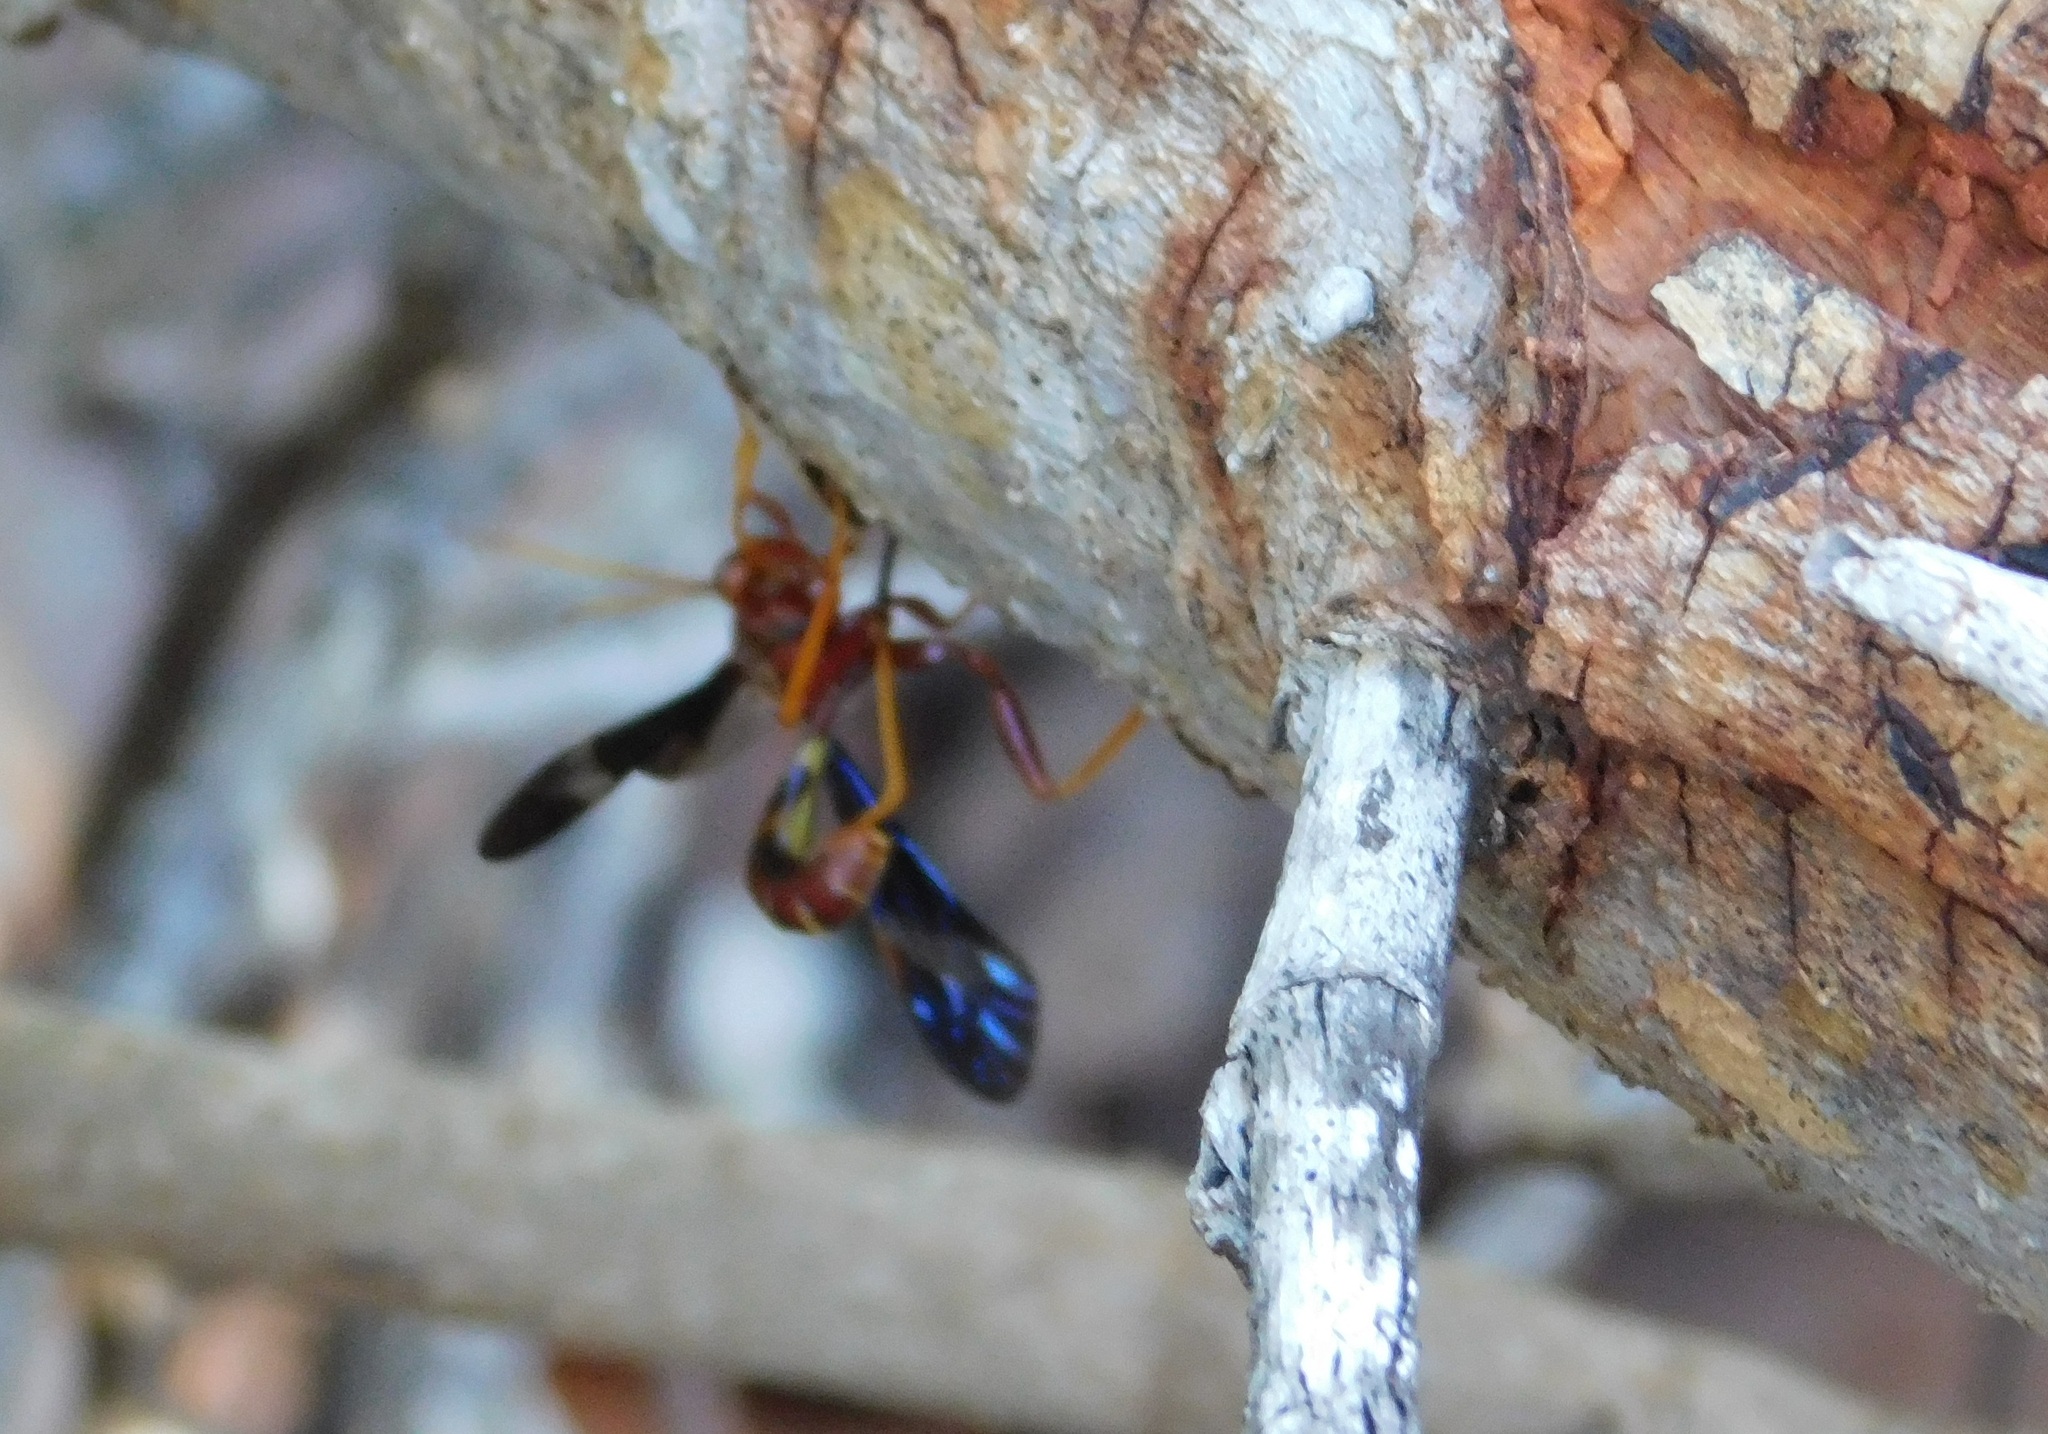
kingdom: Animalia
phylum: Arthropoda
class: Insecta
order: Hymenoptera
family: Ichneumonidae
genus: Labena
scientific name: Labena grallator
